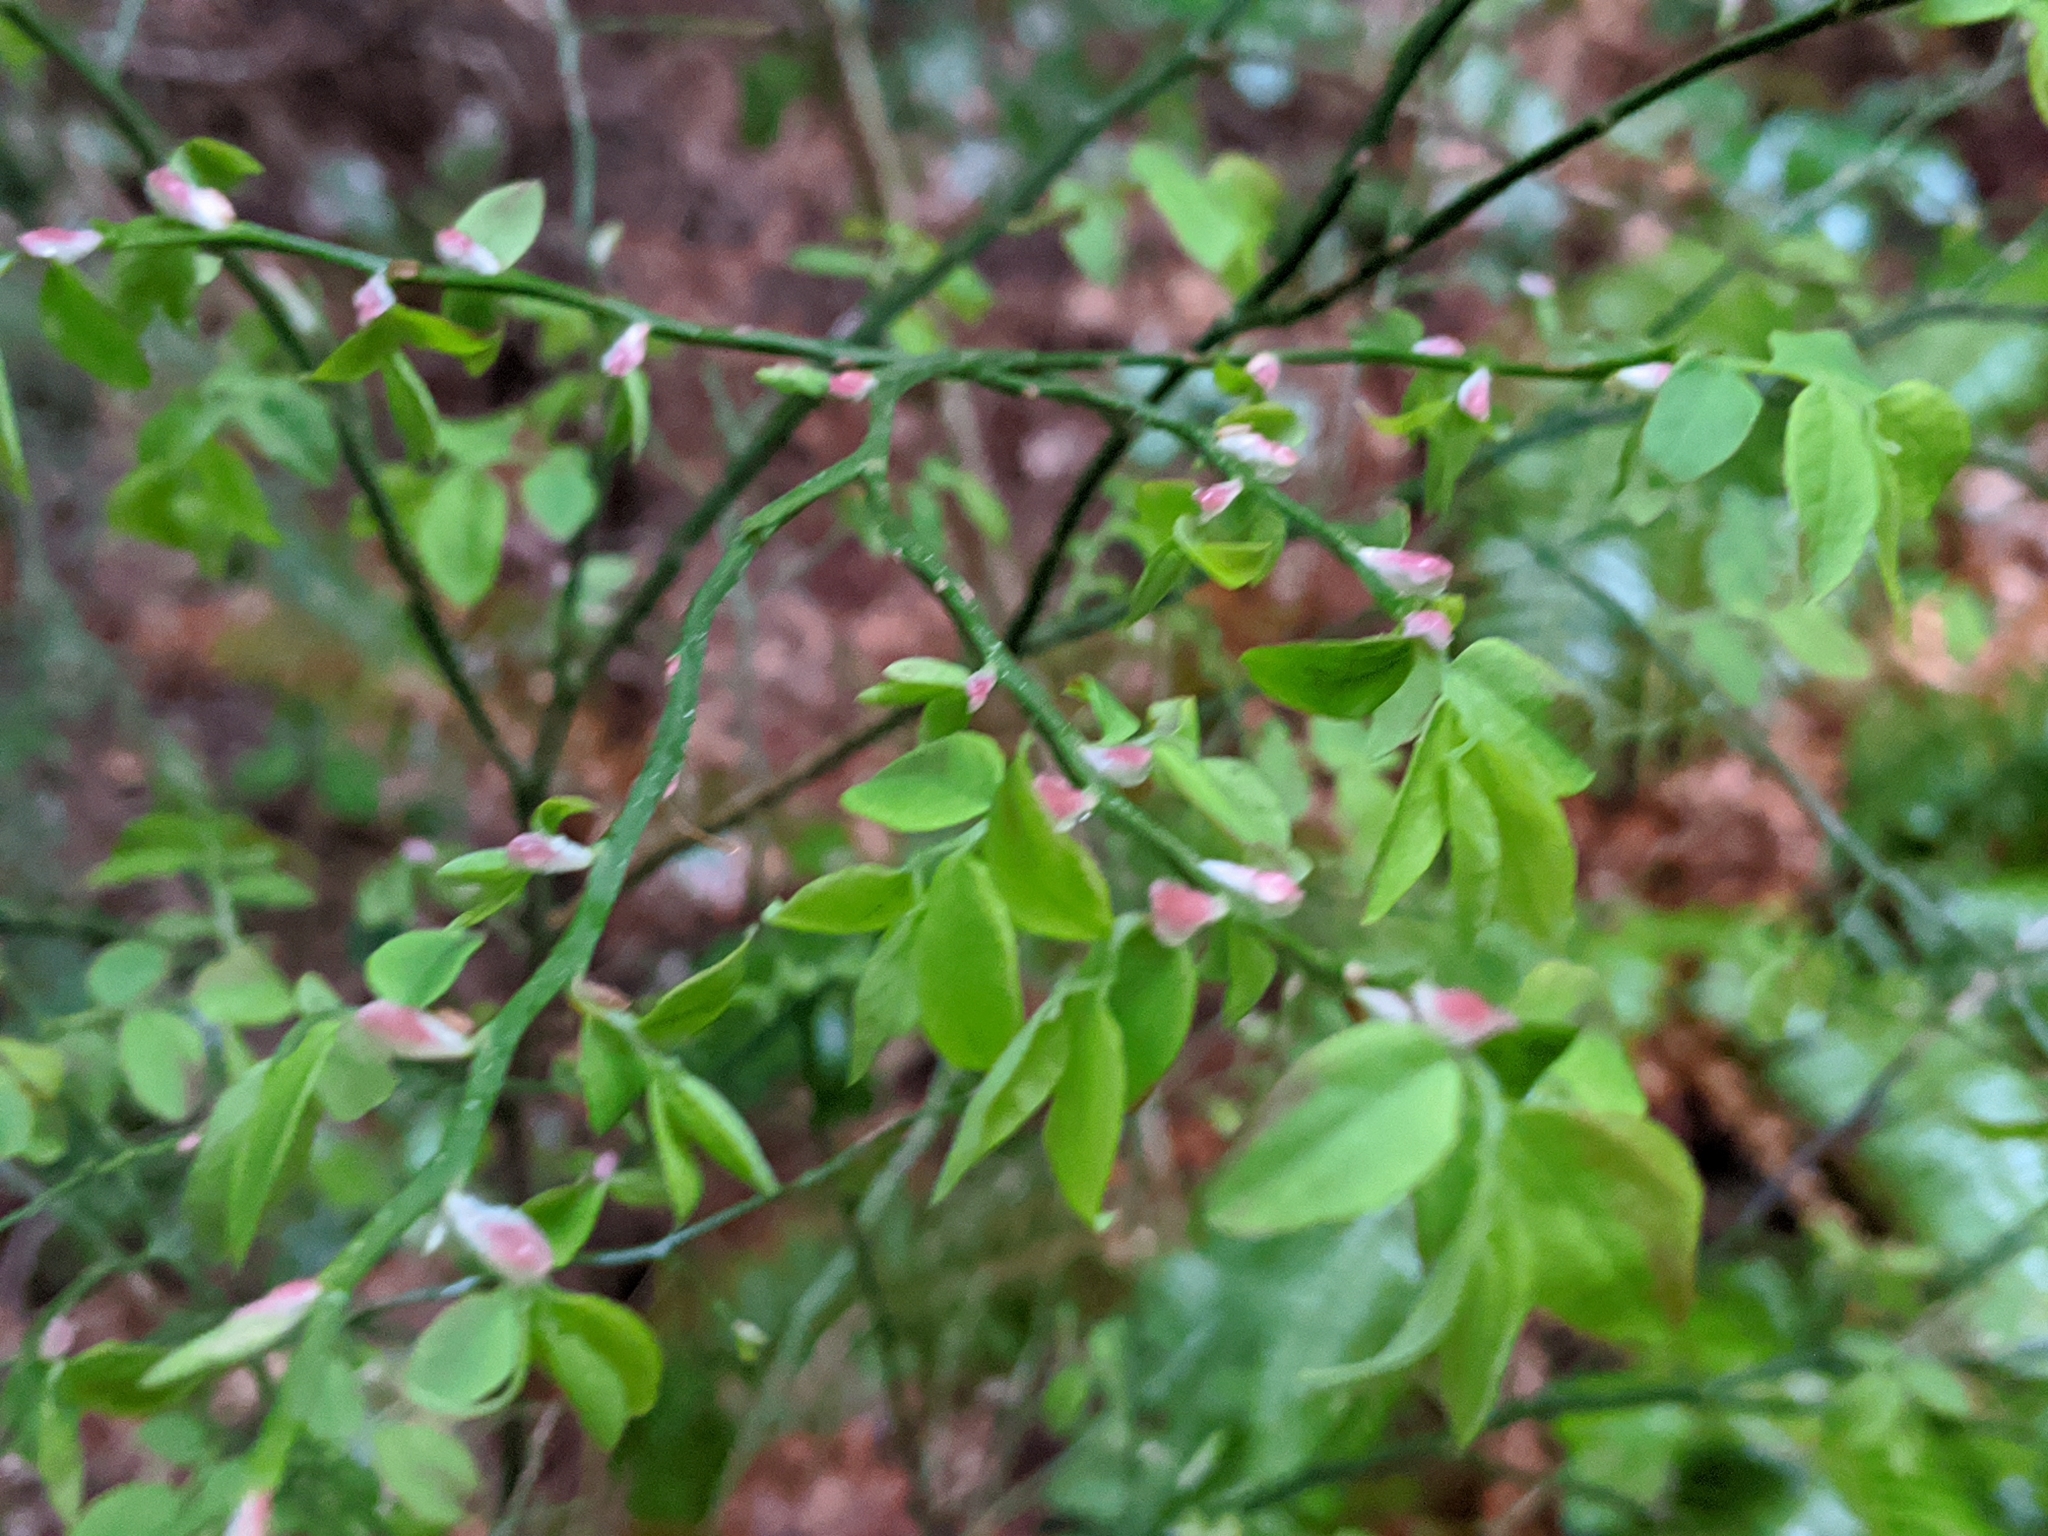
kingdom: Plantae
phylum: Tracheophyta
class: Magnoliopsida
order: Ericales
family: Ericaceae
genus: Vaccinium
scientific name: Vaccinium parvifolium
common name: Red-huckleberry
